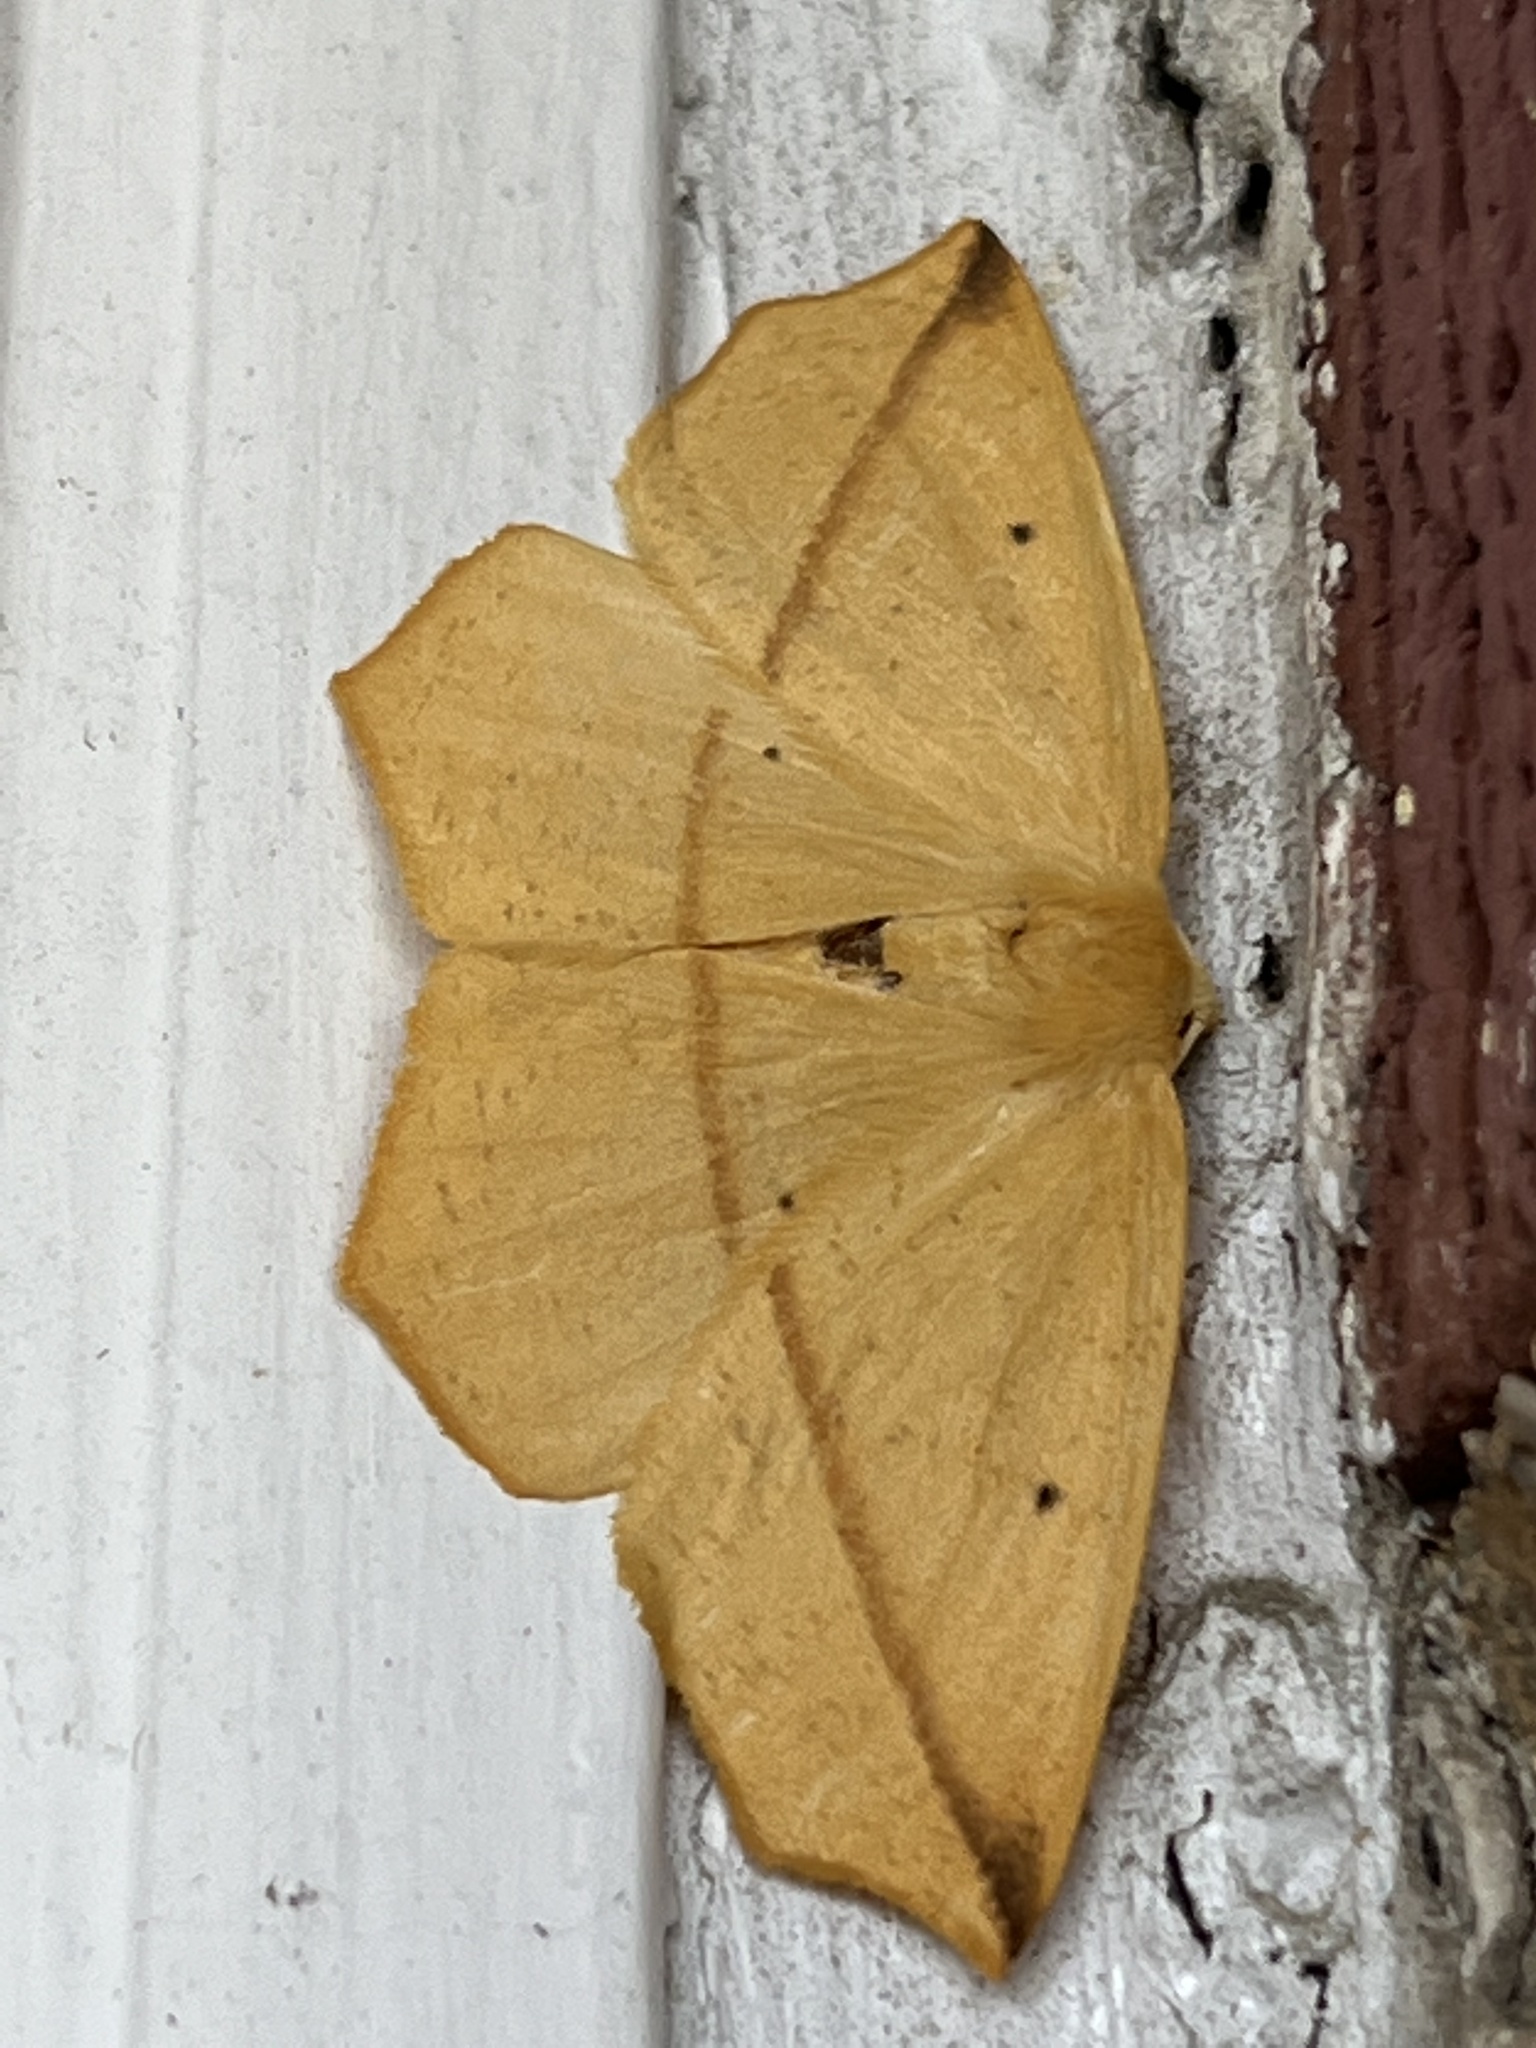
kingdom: Animalia
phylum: Arthropoda
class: Insecta
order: Lepidoptera
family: Geometridae
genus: Tetracis
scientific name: Tetracis crocallata
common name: Yellow slant-line
